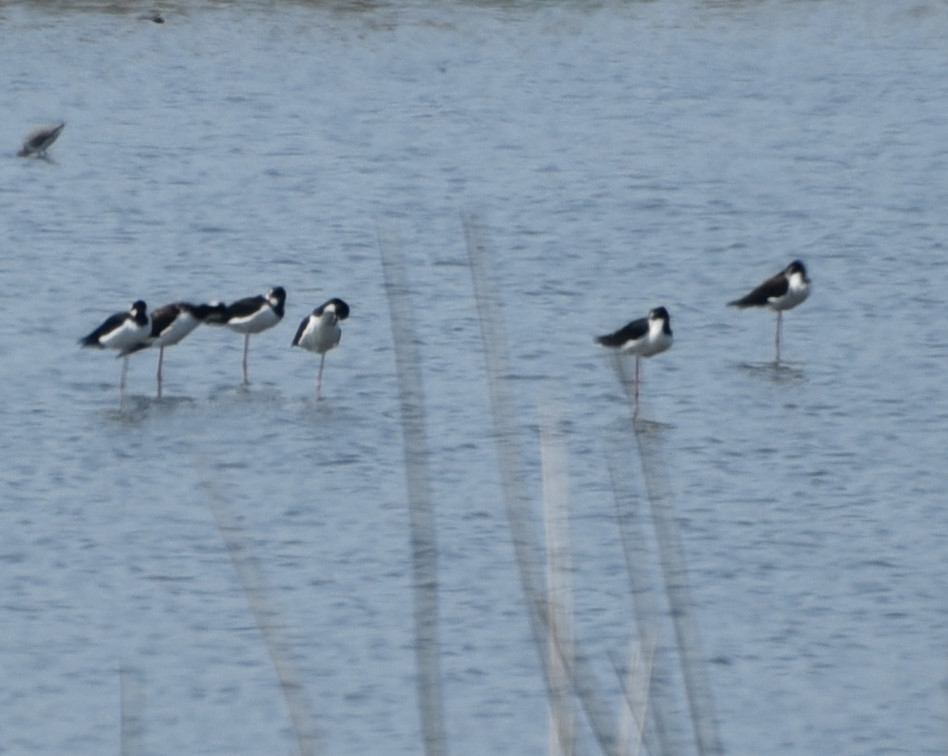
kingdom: Animalia
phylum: Chordata
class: Aves
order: Charadriiformes
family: Recurvirostridae
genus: Himantopus
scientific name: Himantopus mexicanus
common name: Black-necked stilt
